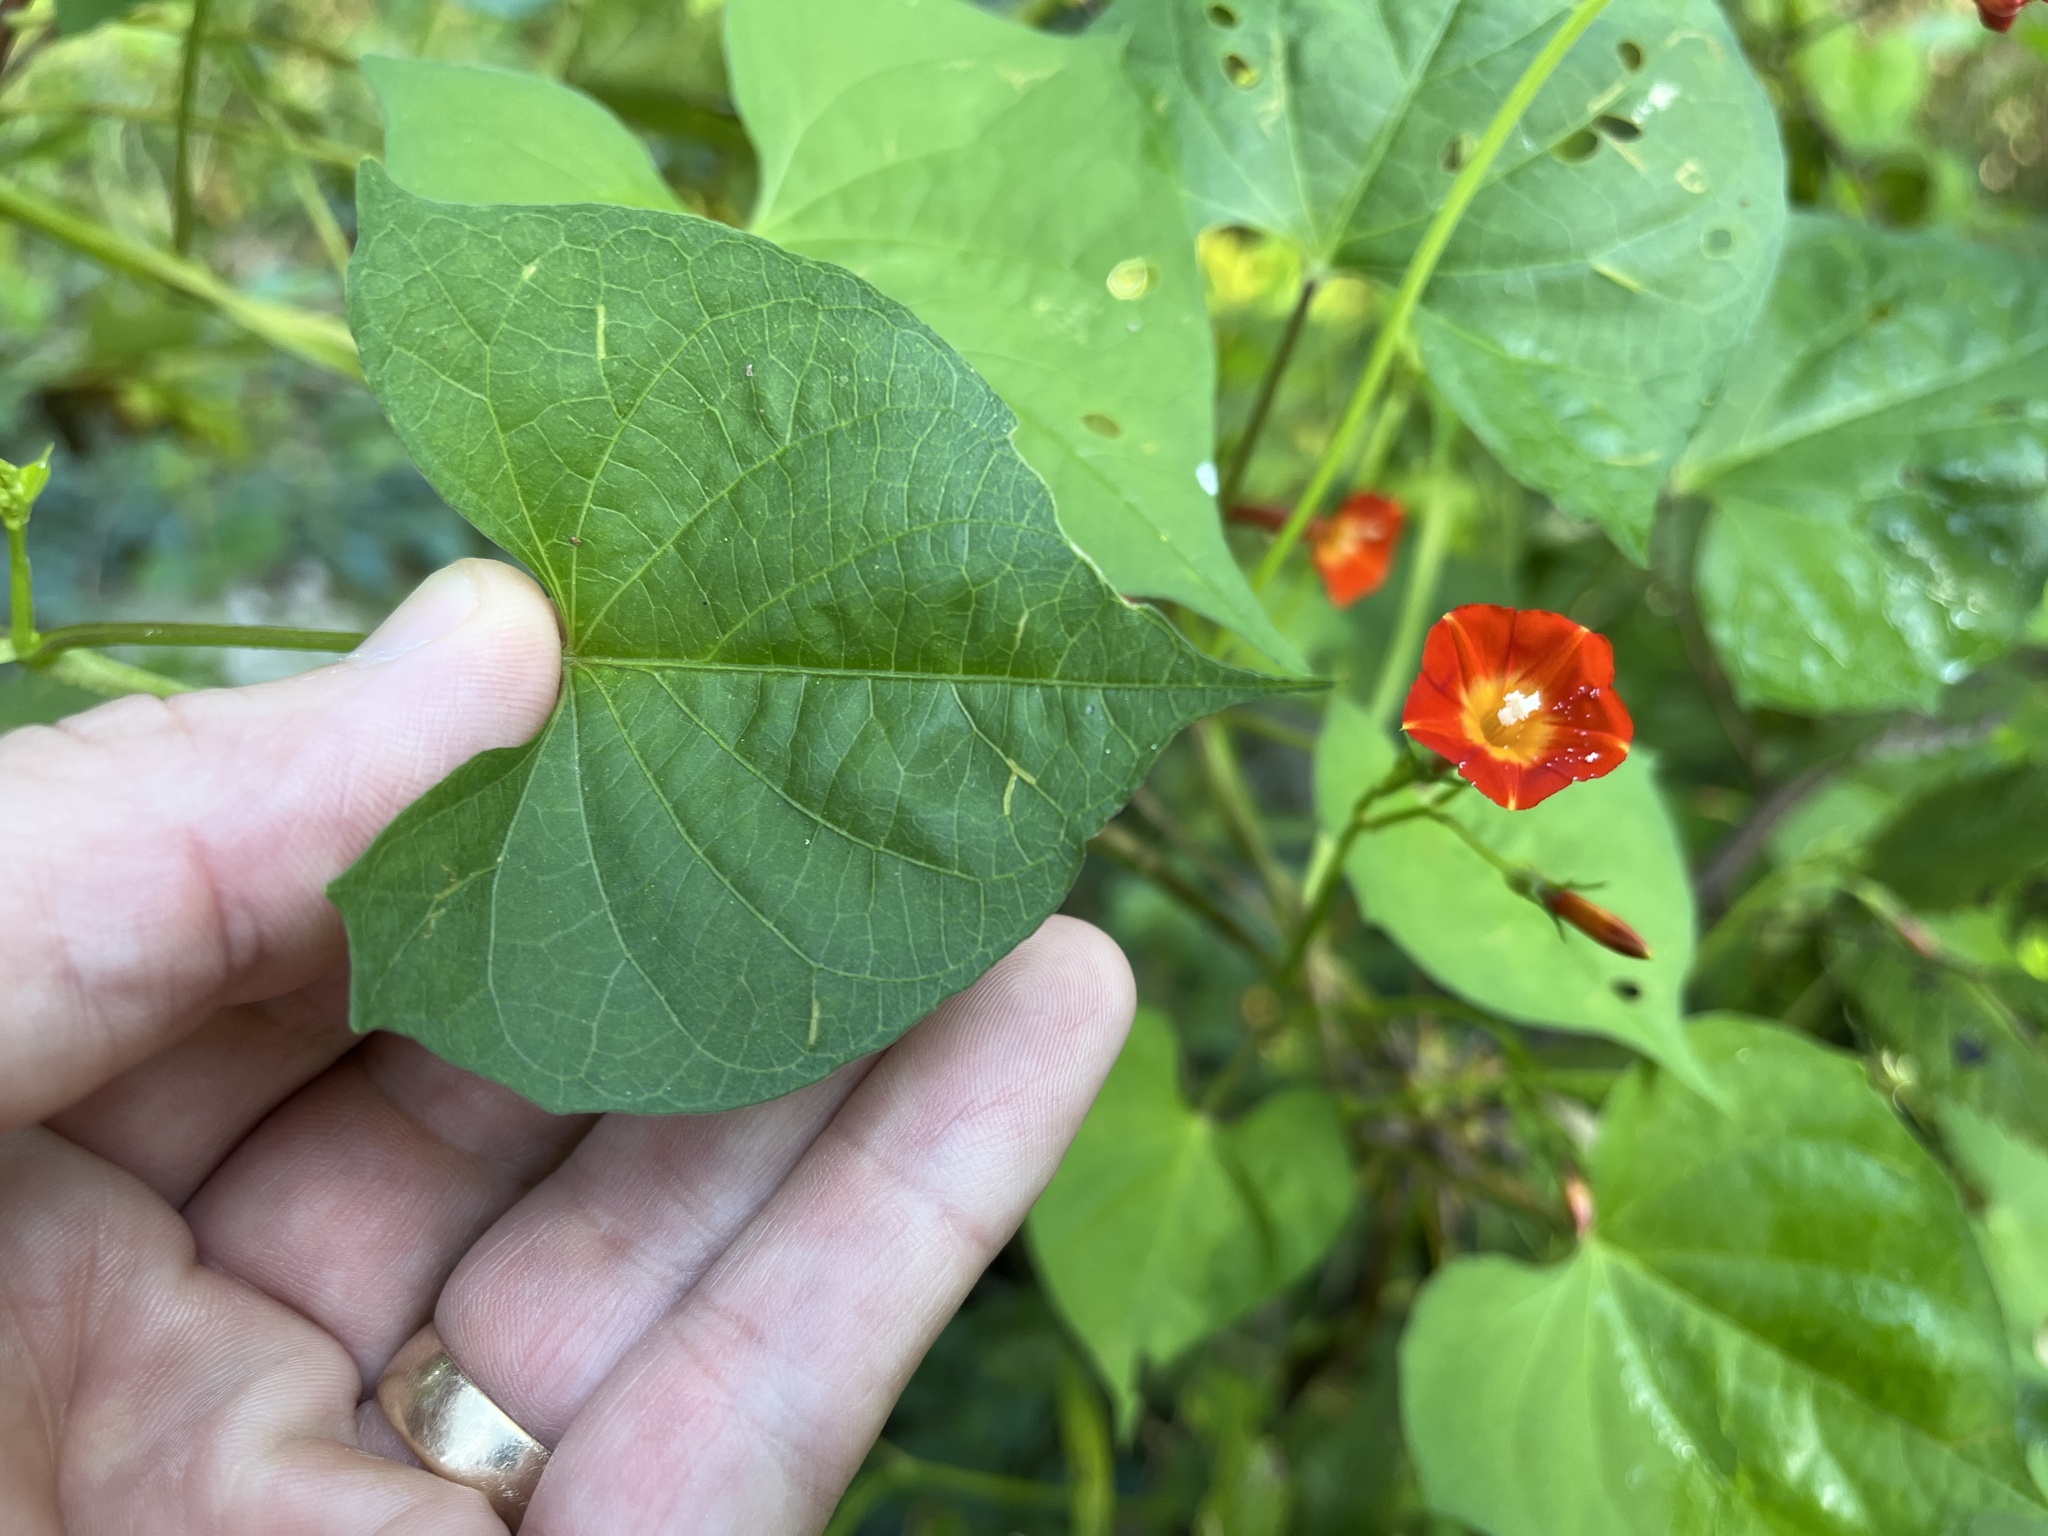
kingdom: Plantae
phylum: Tracheophyta
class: Magnoliopsida
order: Solanales
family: Convolvulaceae
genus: Ipomoea
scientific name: Ipomoea coccinea
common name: Red morning-glory
